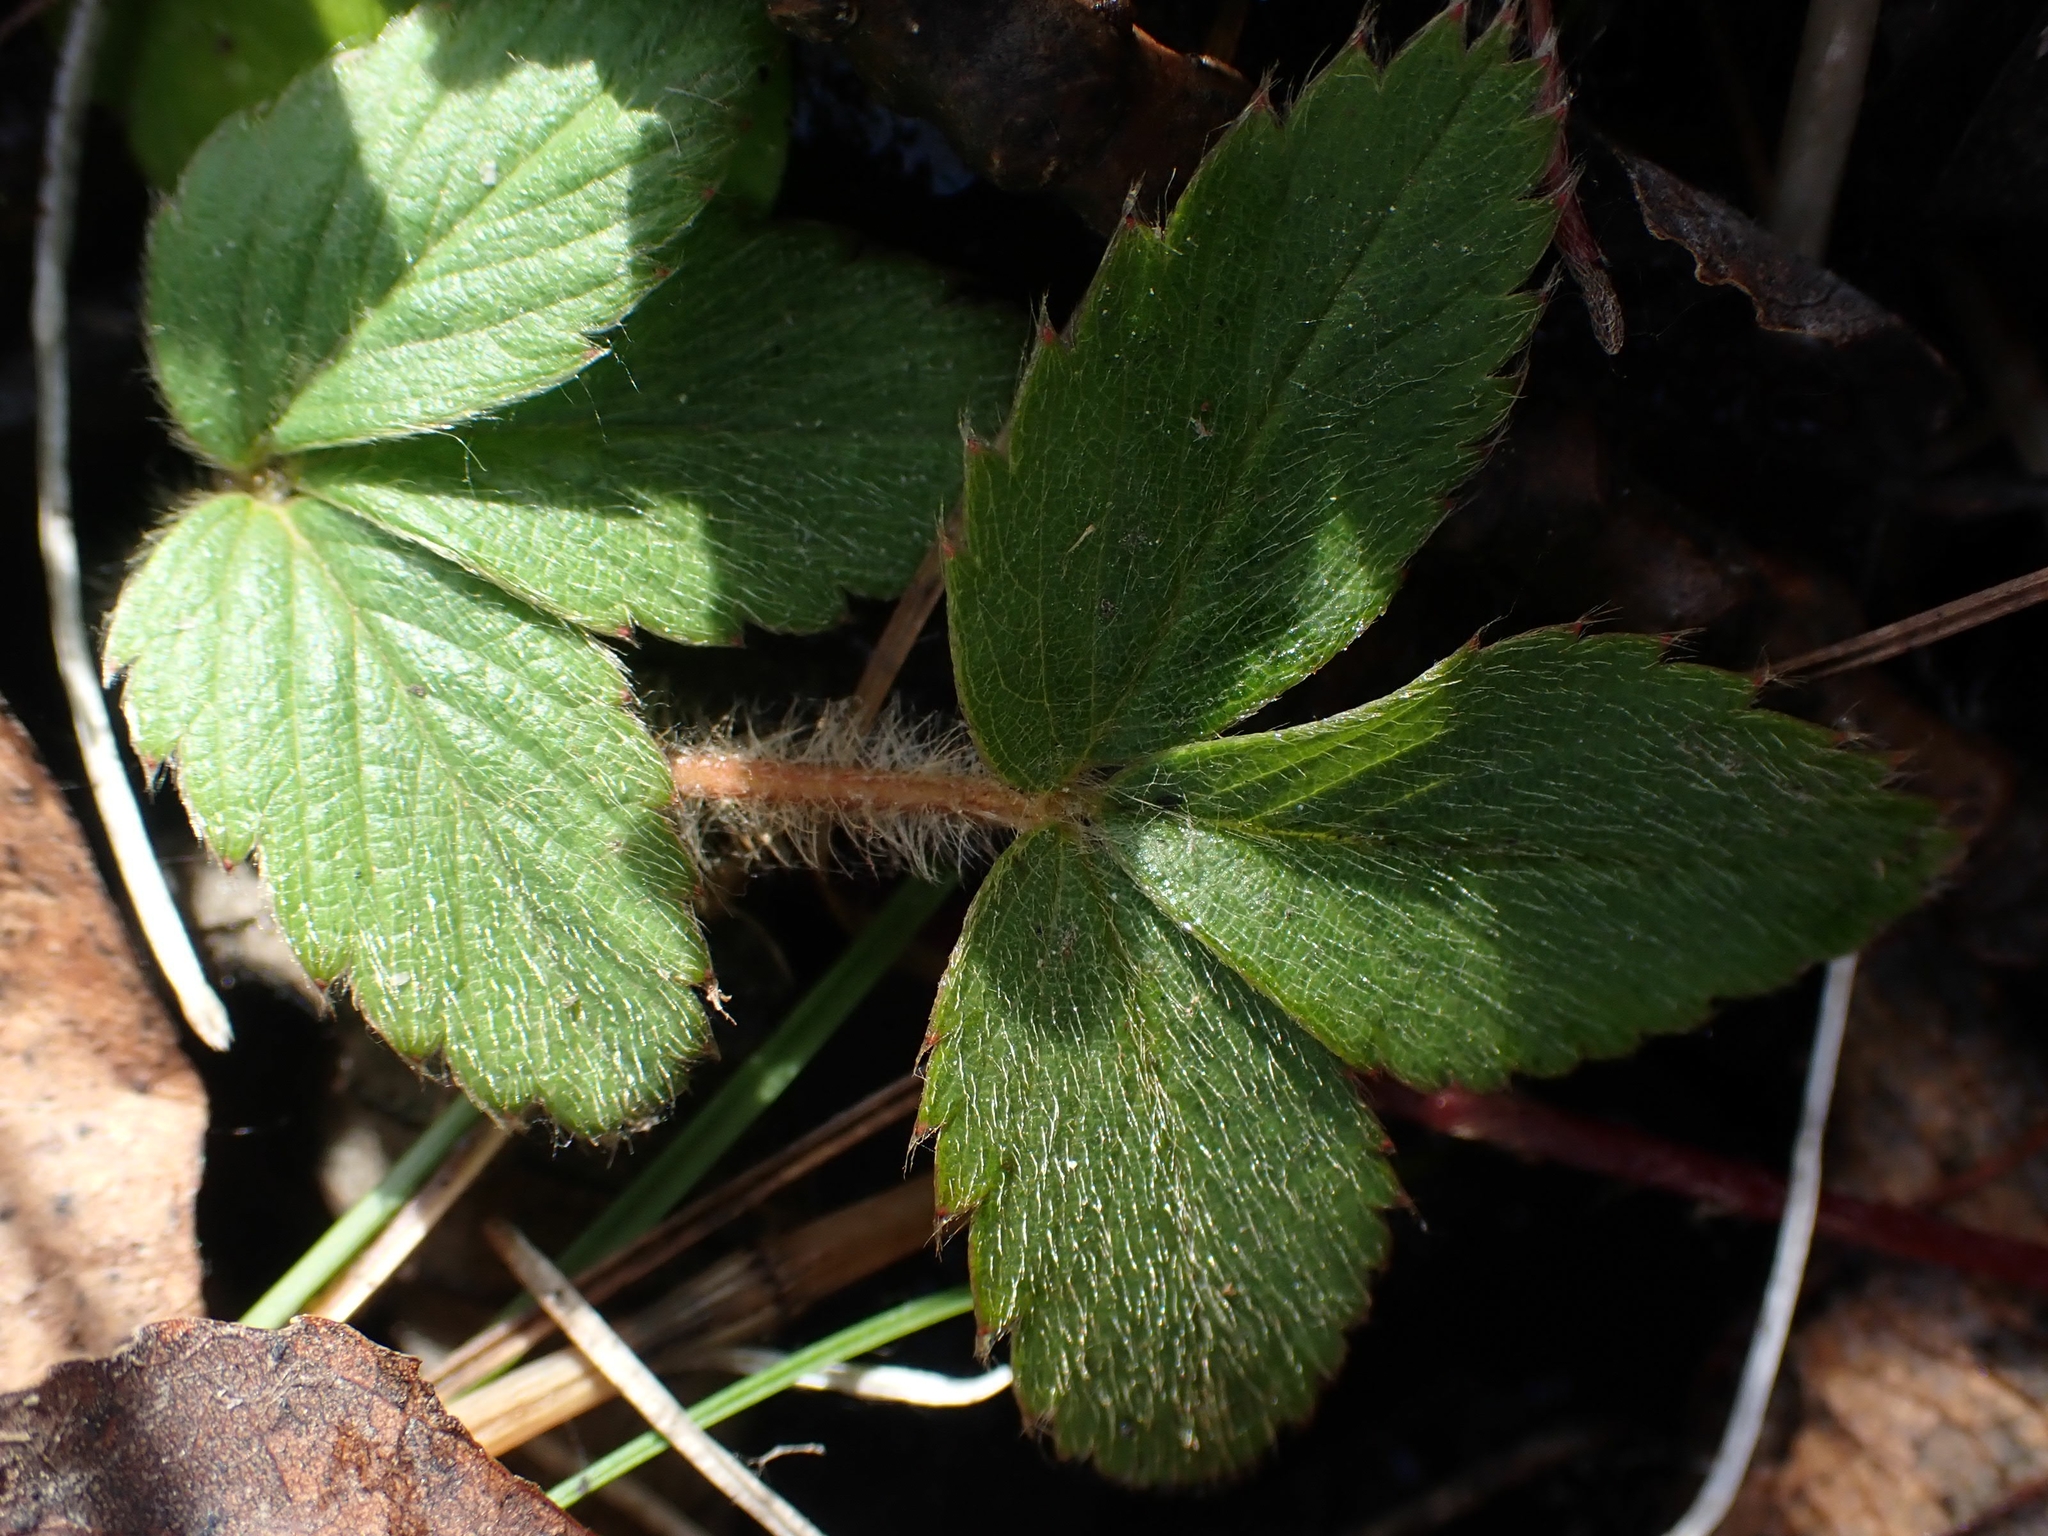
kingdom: Plantae
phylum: Tracheophyta
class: Magnoliopsida
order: Rosales
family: Rosaceae
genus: Fragaria
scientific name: Fragaria virginiana
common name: Thickleaved wild strawberry
